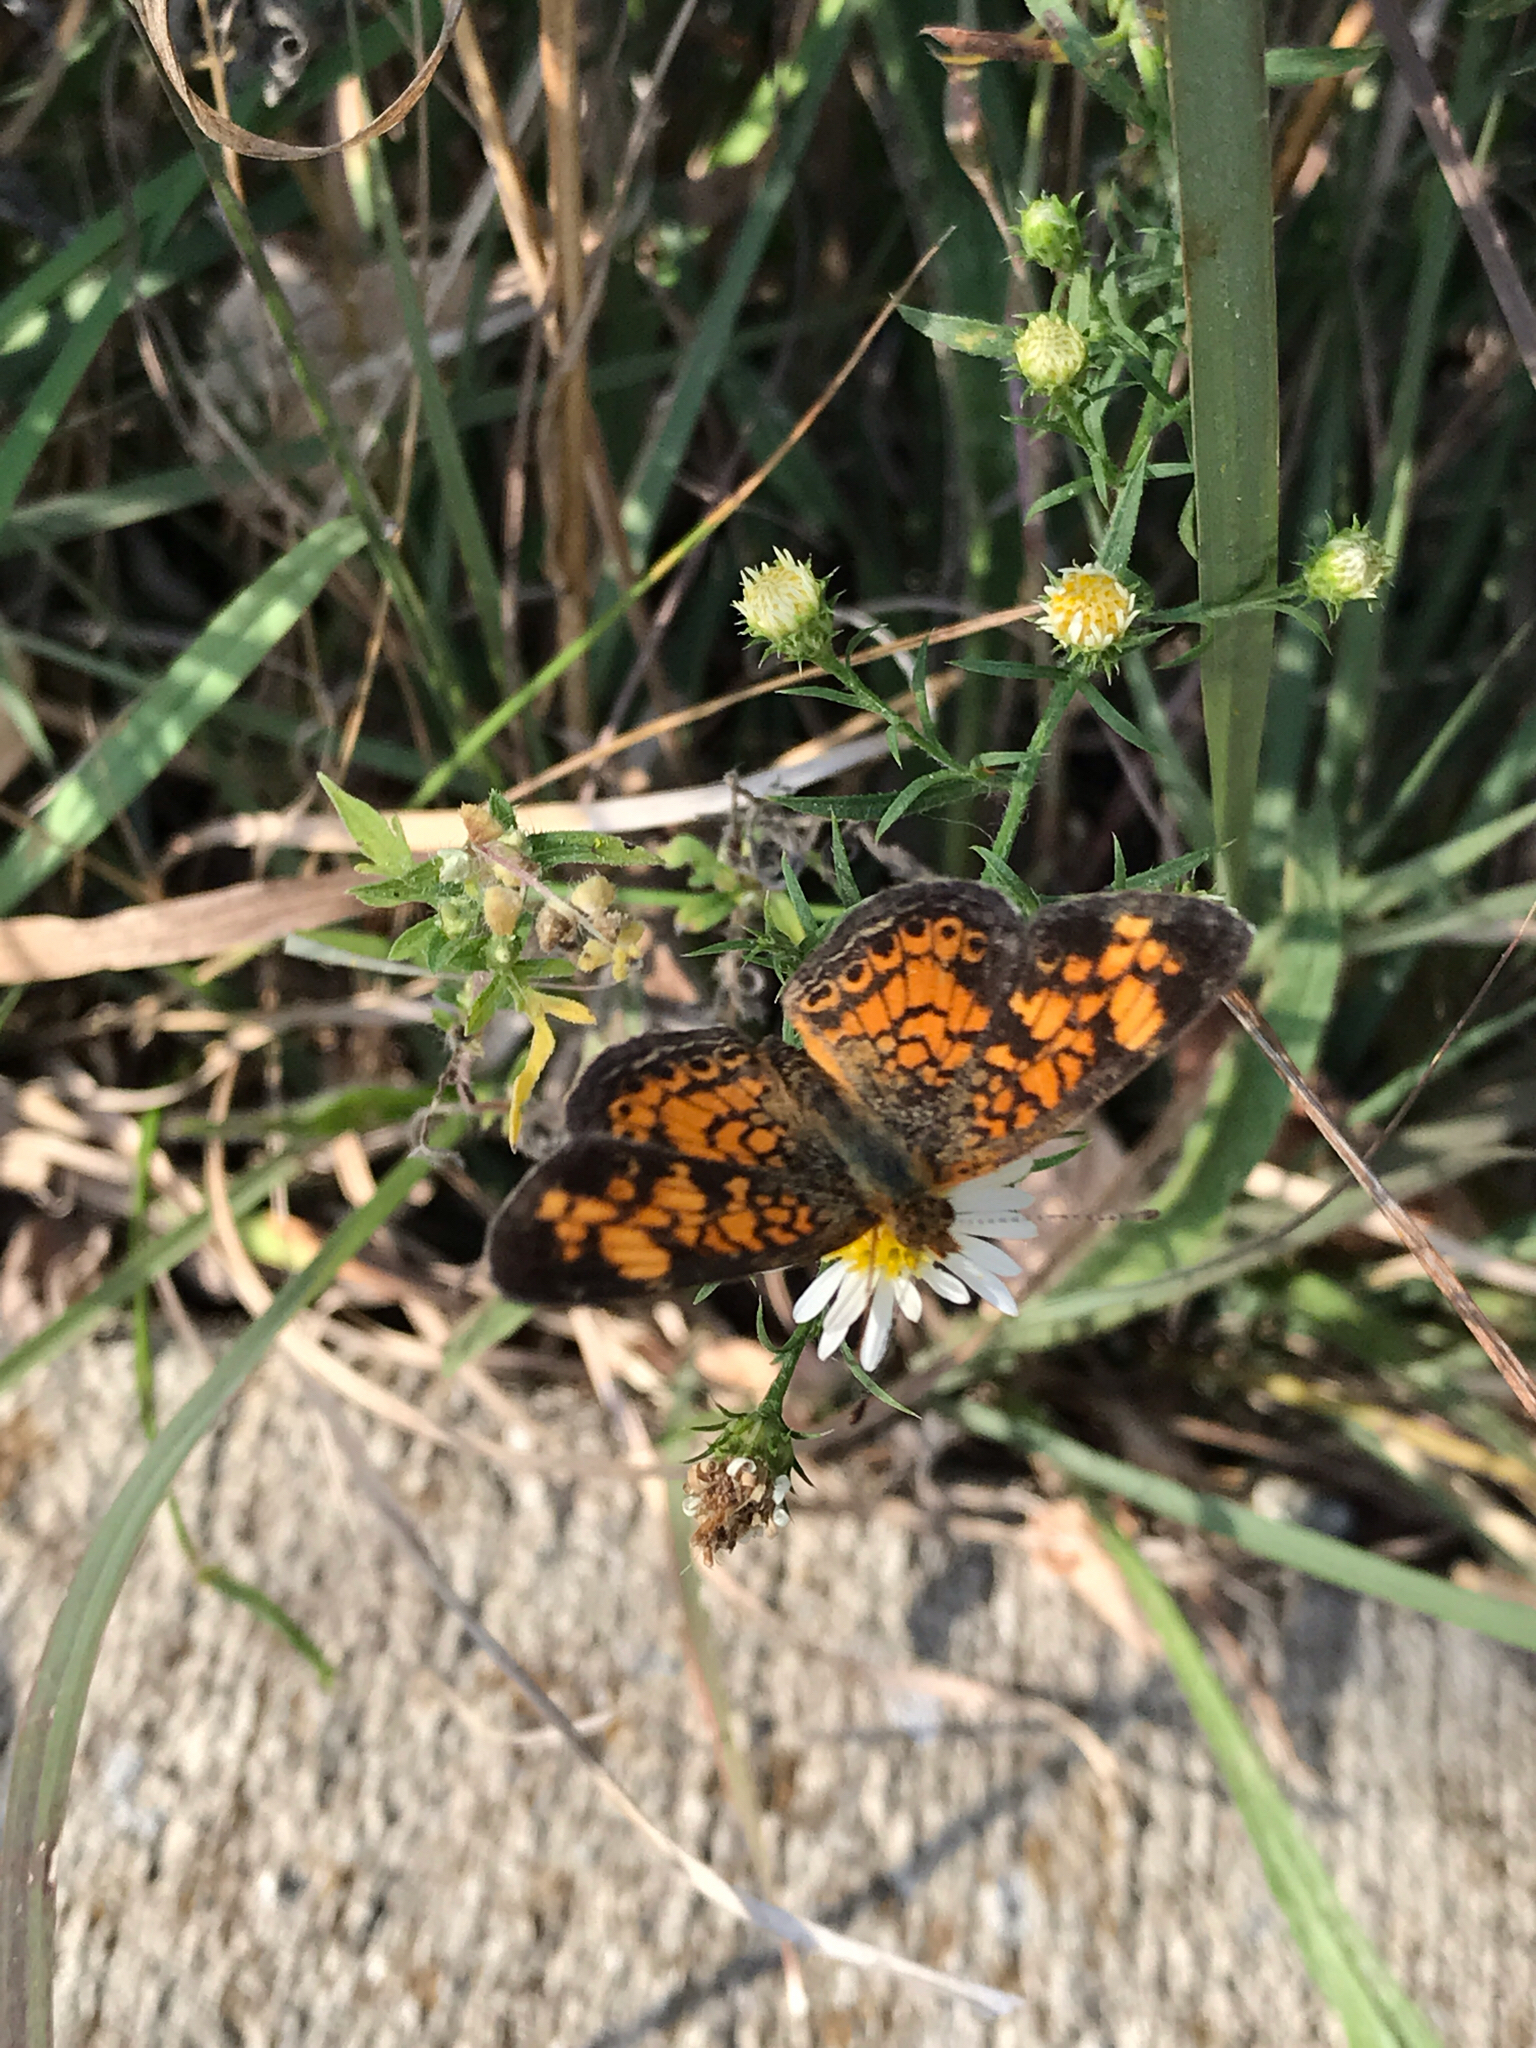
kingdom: Animalia
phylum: Arthropoda
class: Insecta
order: Lepidoptera
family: Nymphalidae
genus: Phyciodes
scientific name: Phyciodes tharos
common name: Pearl crescent
